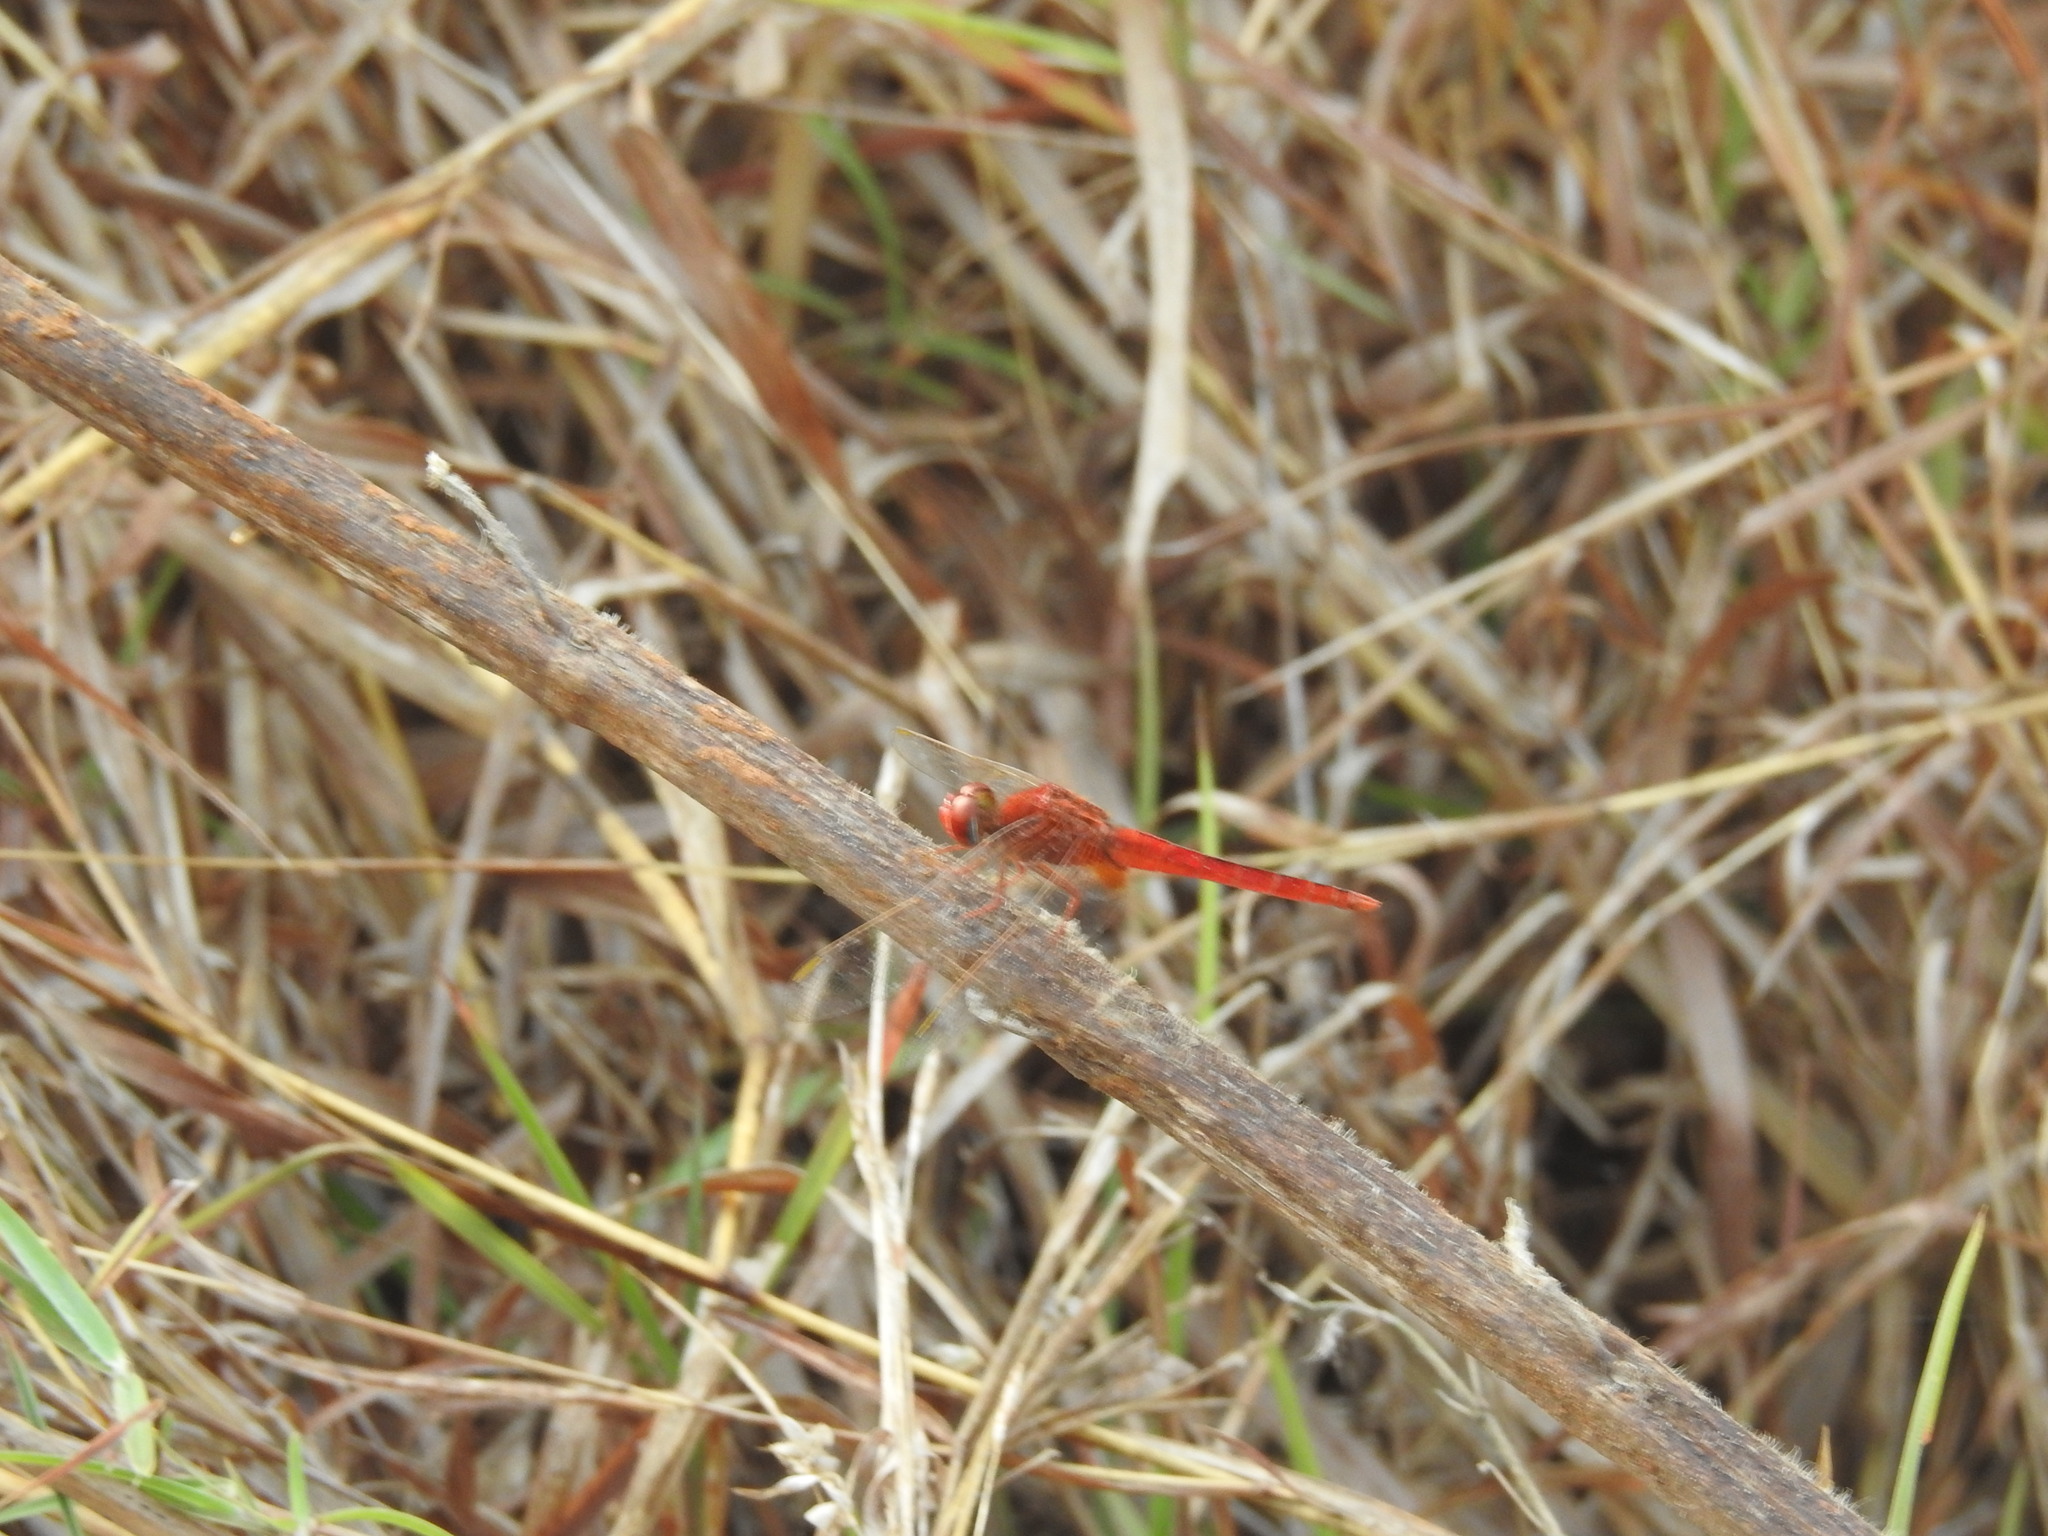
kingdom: Animalia
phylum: Arthropoda
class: Insecta
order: Odonata
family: Libellulidae
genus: Crocothemis
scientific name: Crocothemis servilia
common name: Scarlet skimmer
